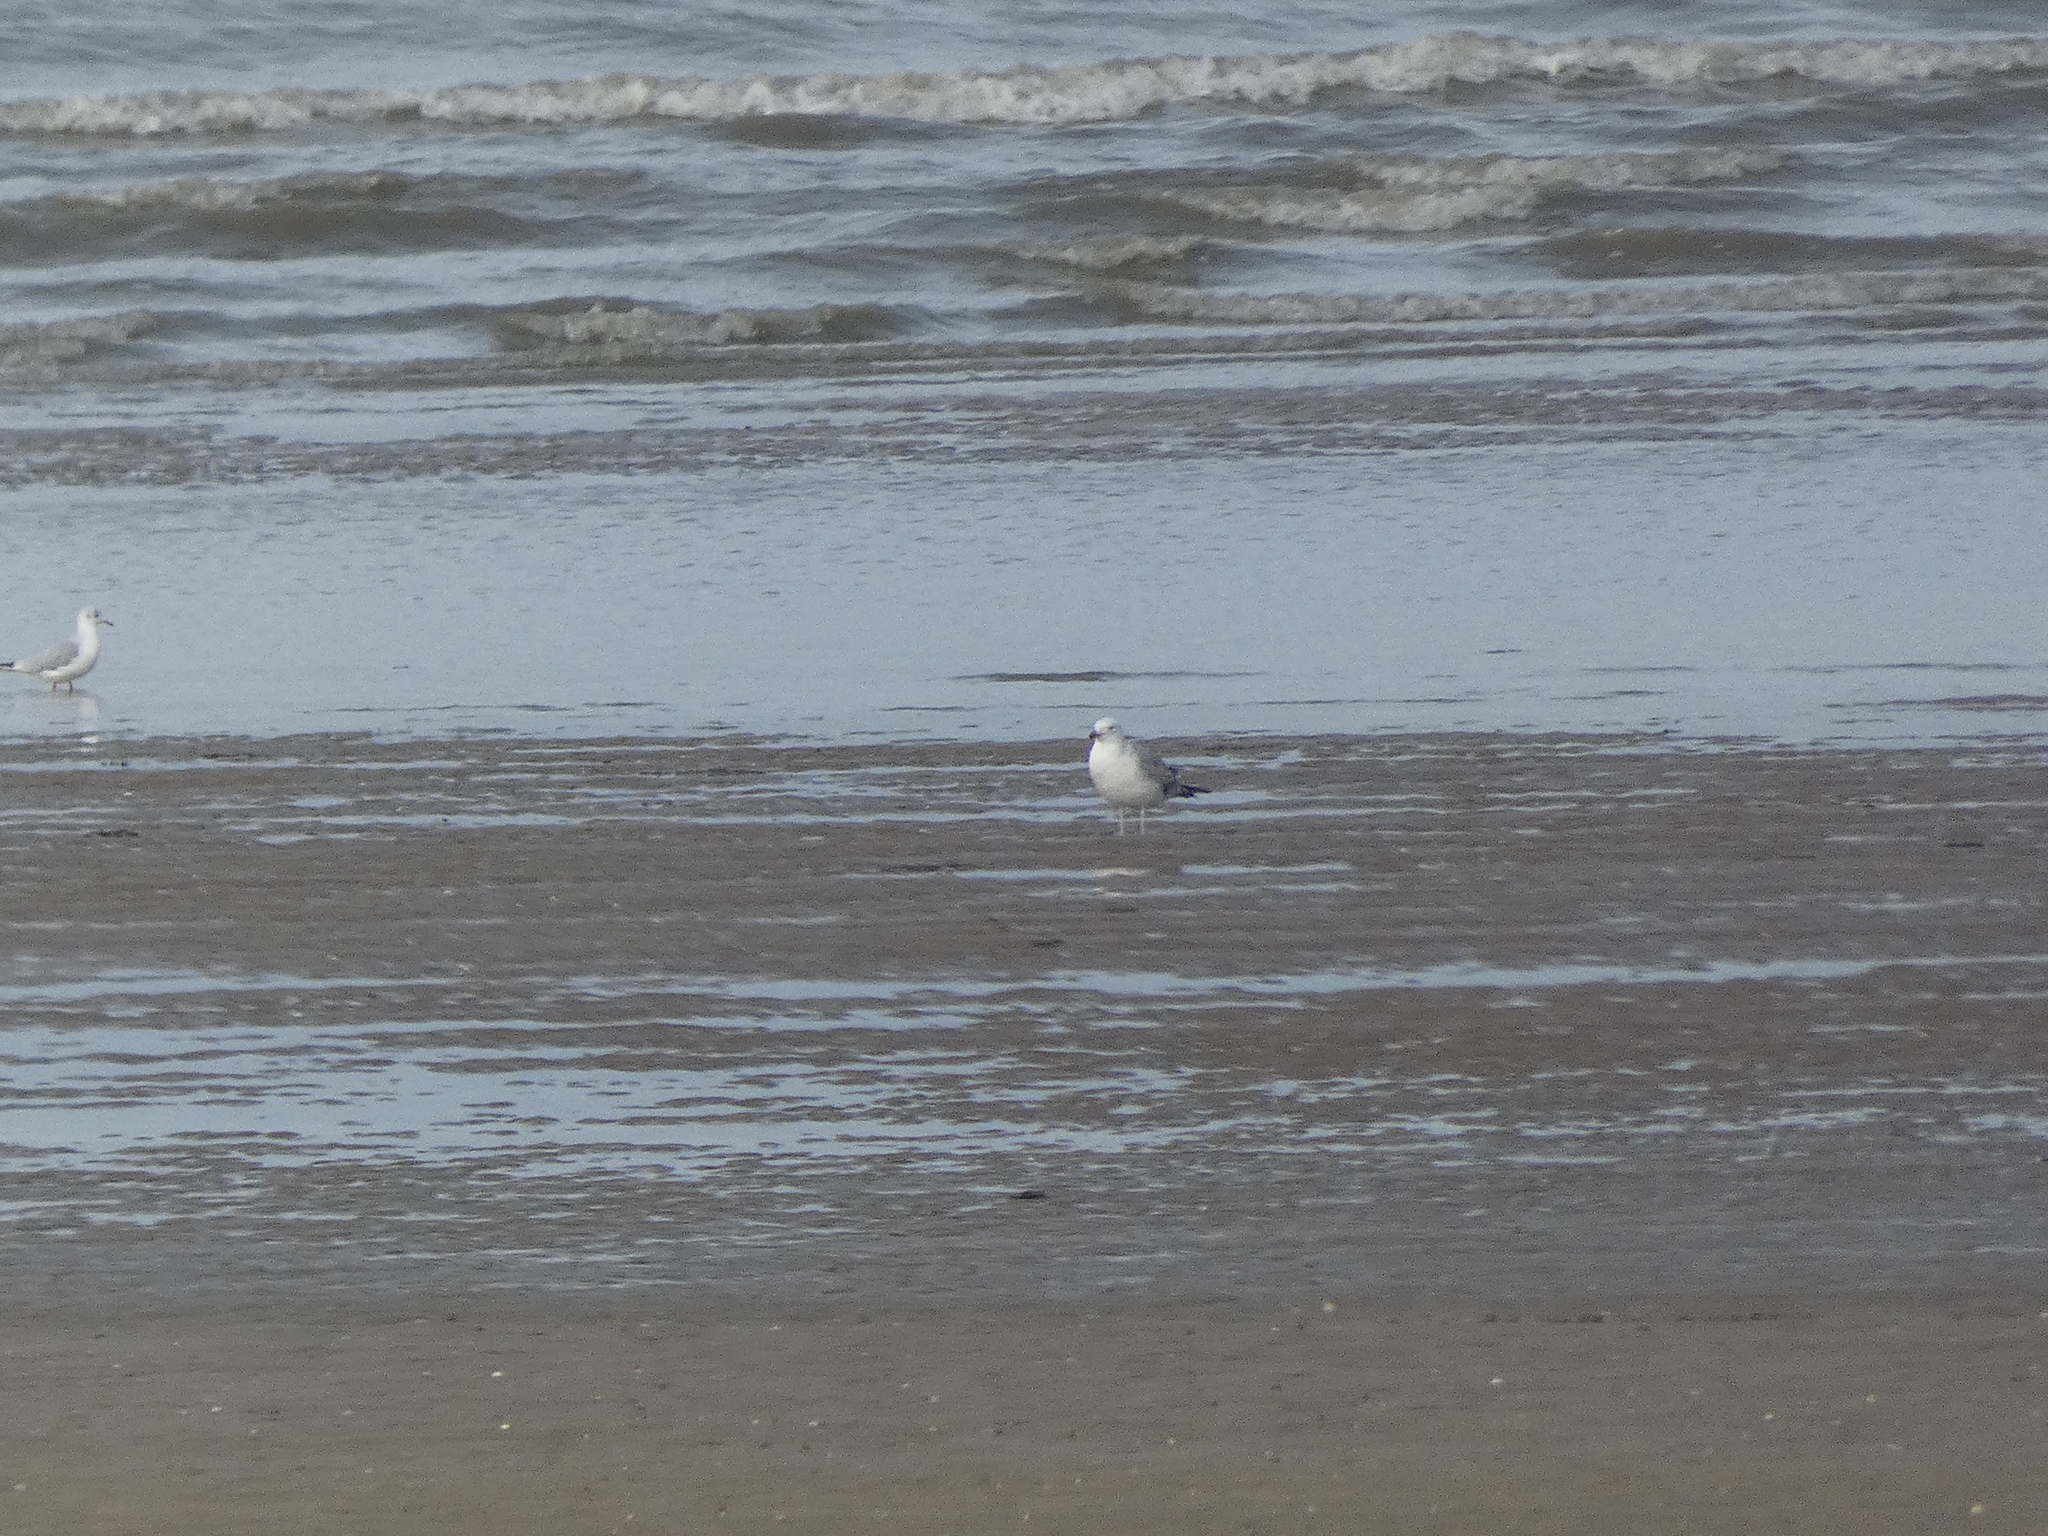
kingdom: Animalia
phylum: Chordata
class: Aves
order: Charadriiformes
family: Laridae
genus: Larus
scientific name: Larus cachinnans
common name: Caspian gull
